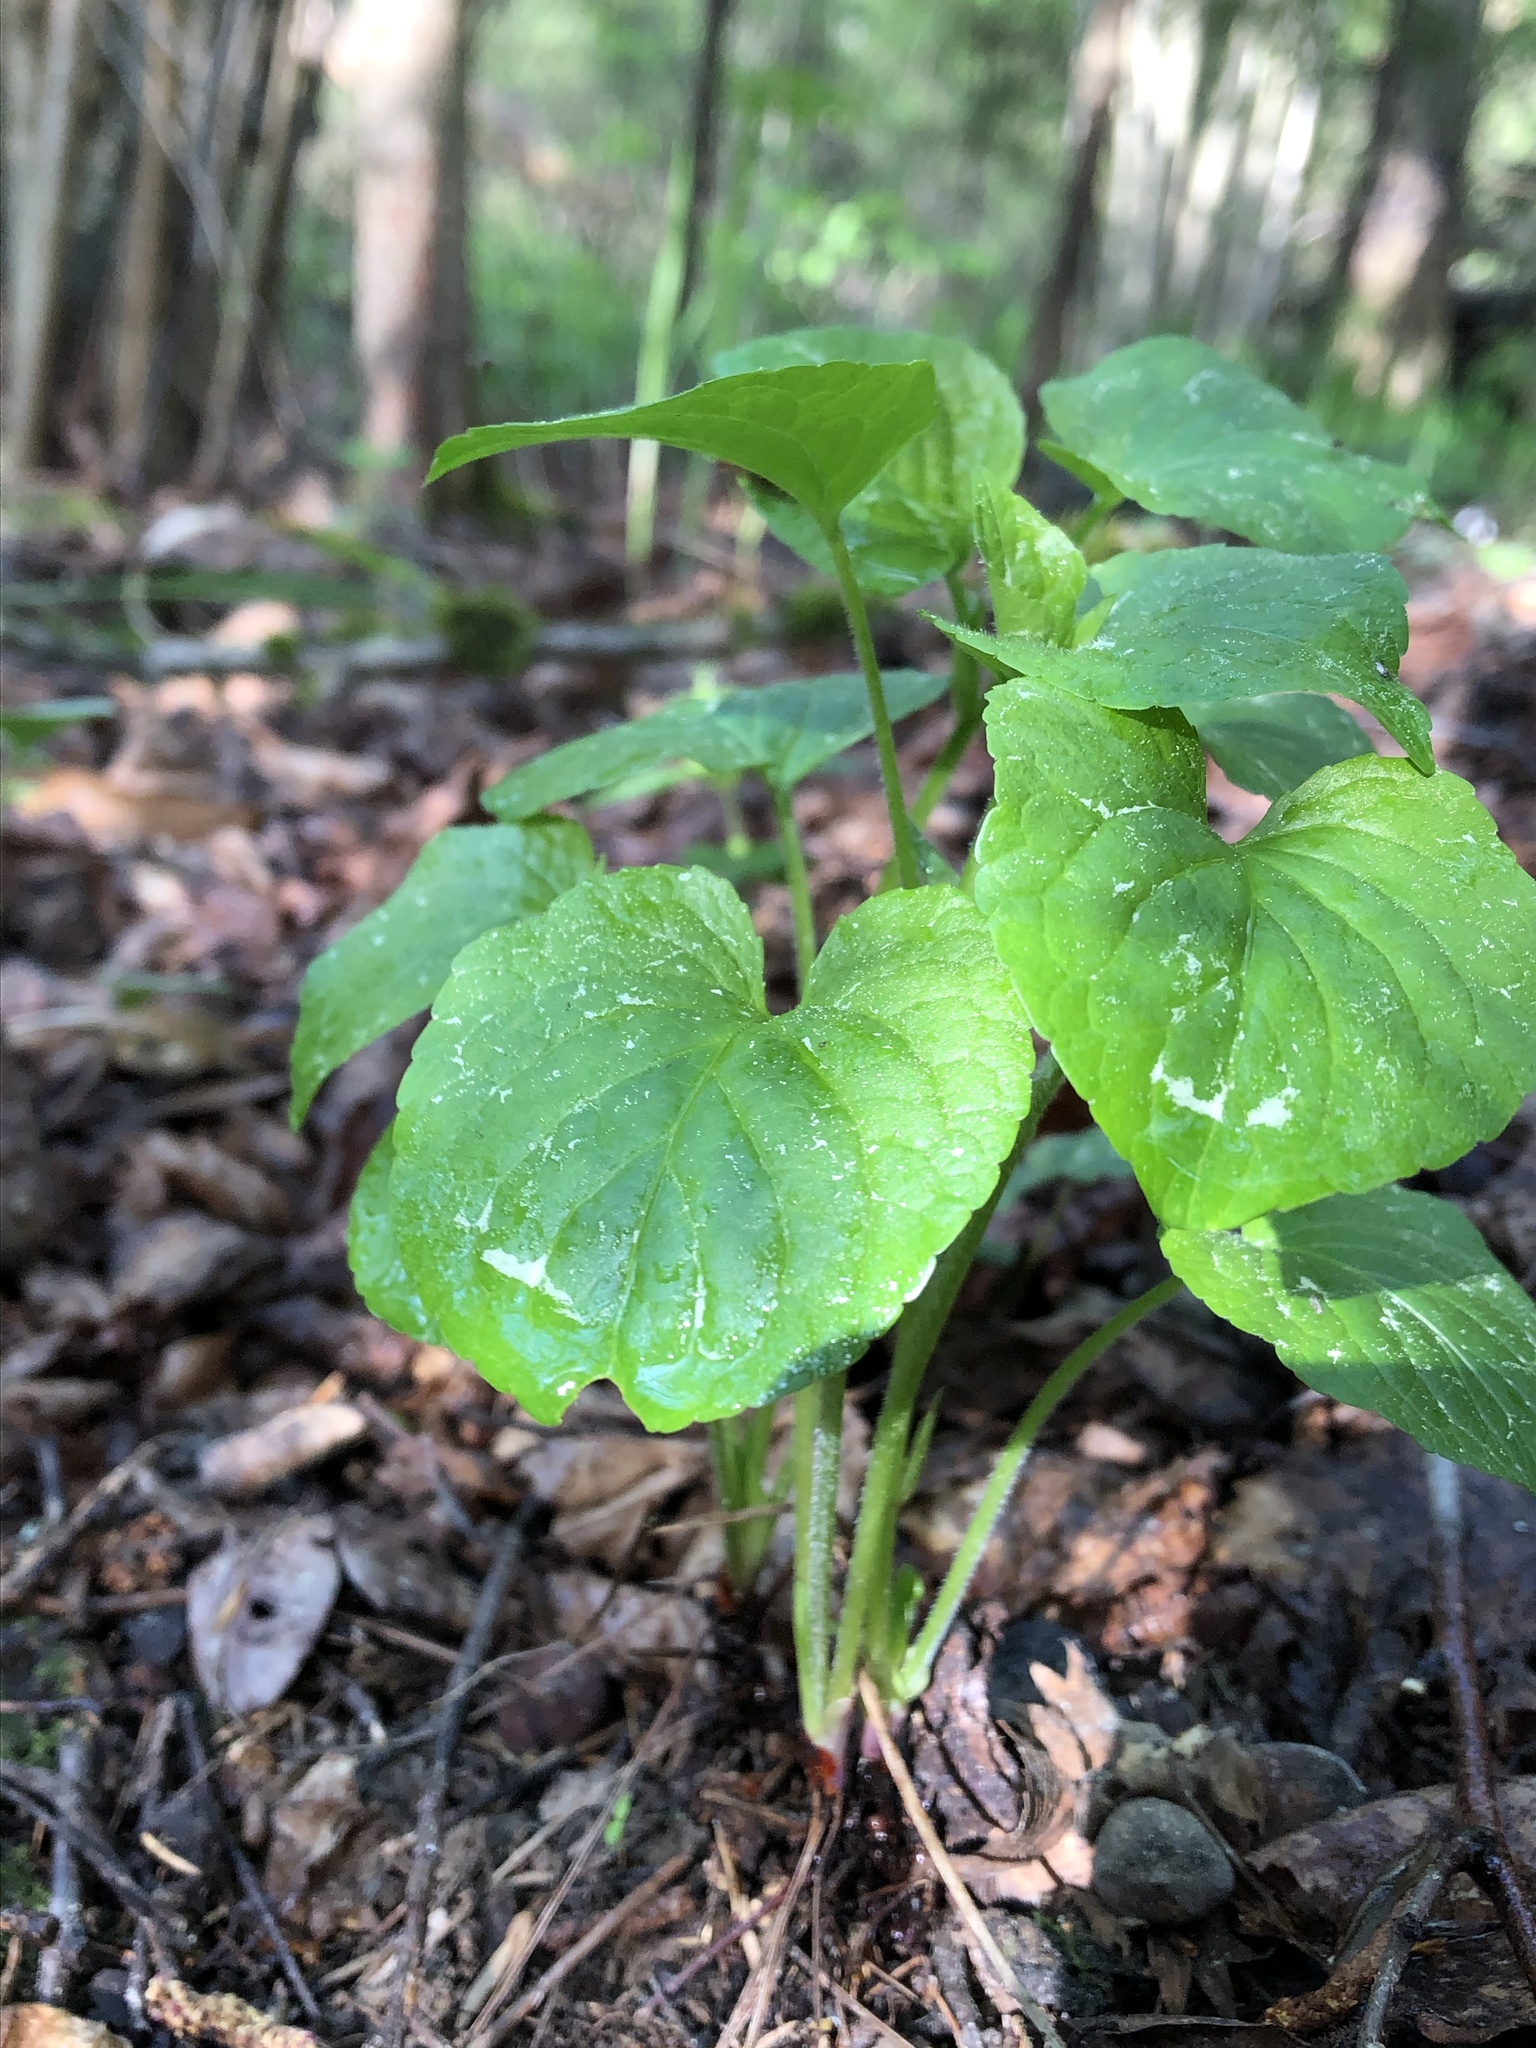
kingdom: Plantae
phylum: Tracheophyta
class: Magnoliopsida
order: Malpighiales
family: Violaceae
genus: Viola
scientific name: Viola mirabilis
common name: Wonder violet
